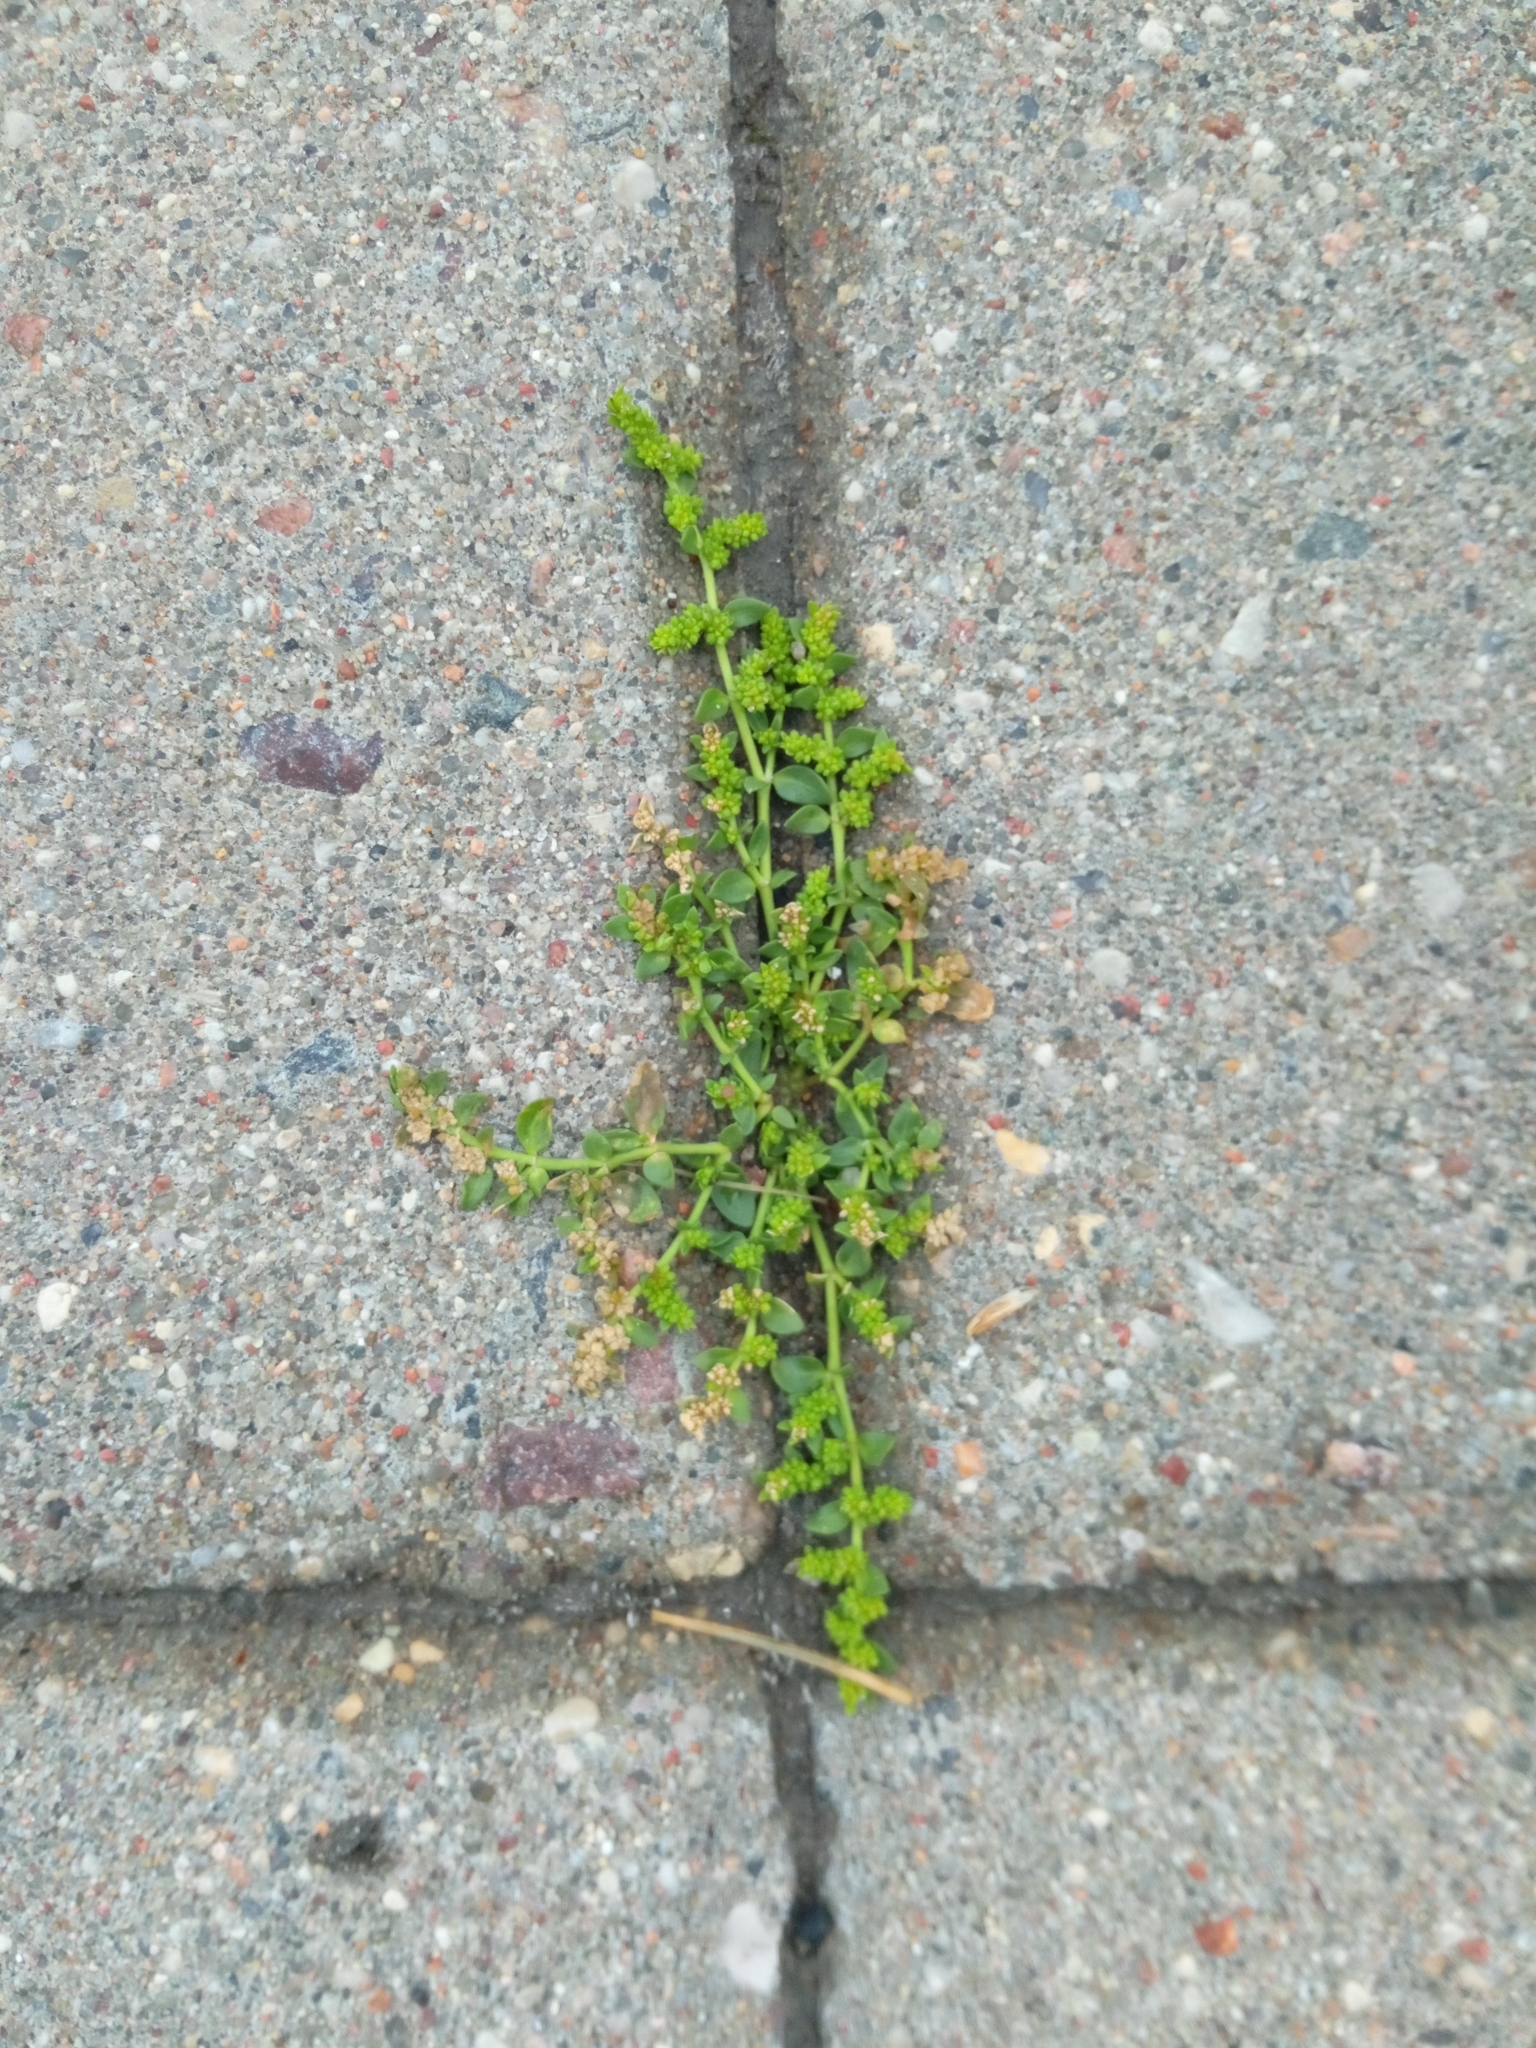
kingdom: Plantae
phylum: Tracheophyta
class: Magnoliopsida
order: Caryophyllales
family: Caryophyllaceae
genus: Herniaria
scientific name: Herniaria glabra
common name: Smooth rupturewort
